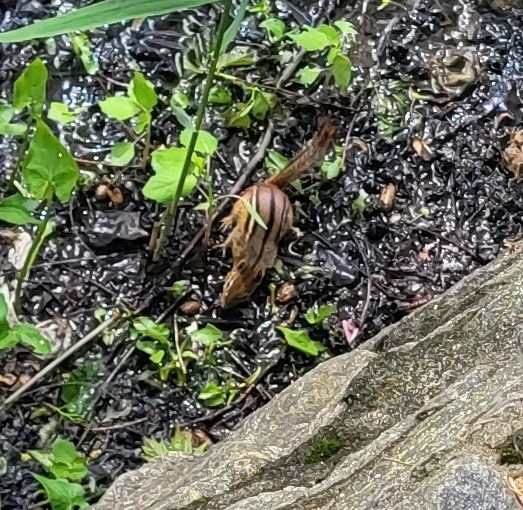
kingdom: Animalia
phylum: Chordata
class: Mammalia
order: Rodentia
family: Sciuridae
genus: Tamias
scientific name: Tamias striatus
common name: Eastern chipmunk
